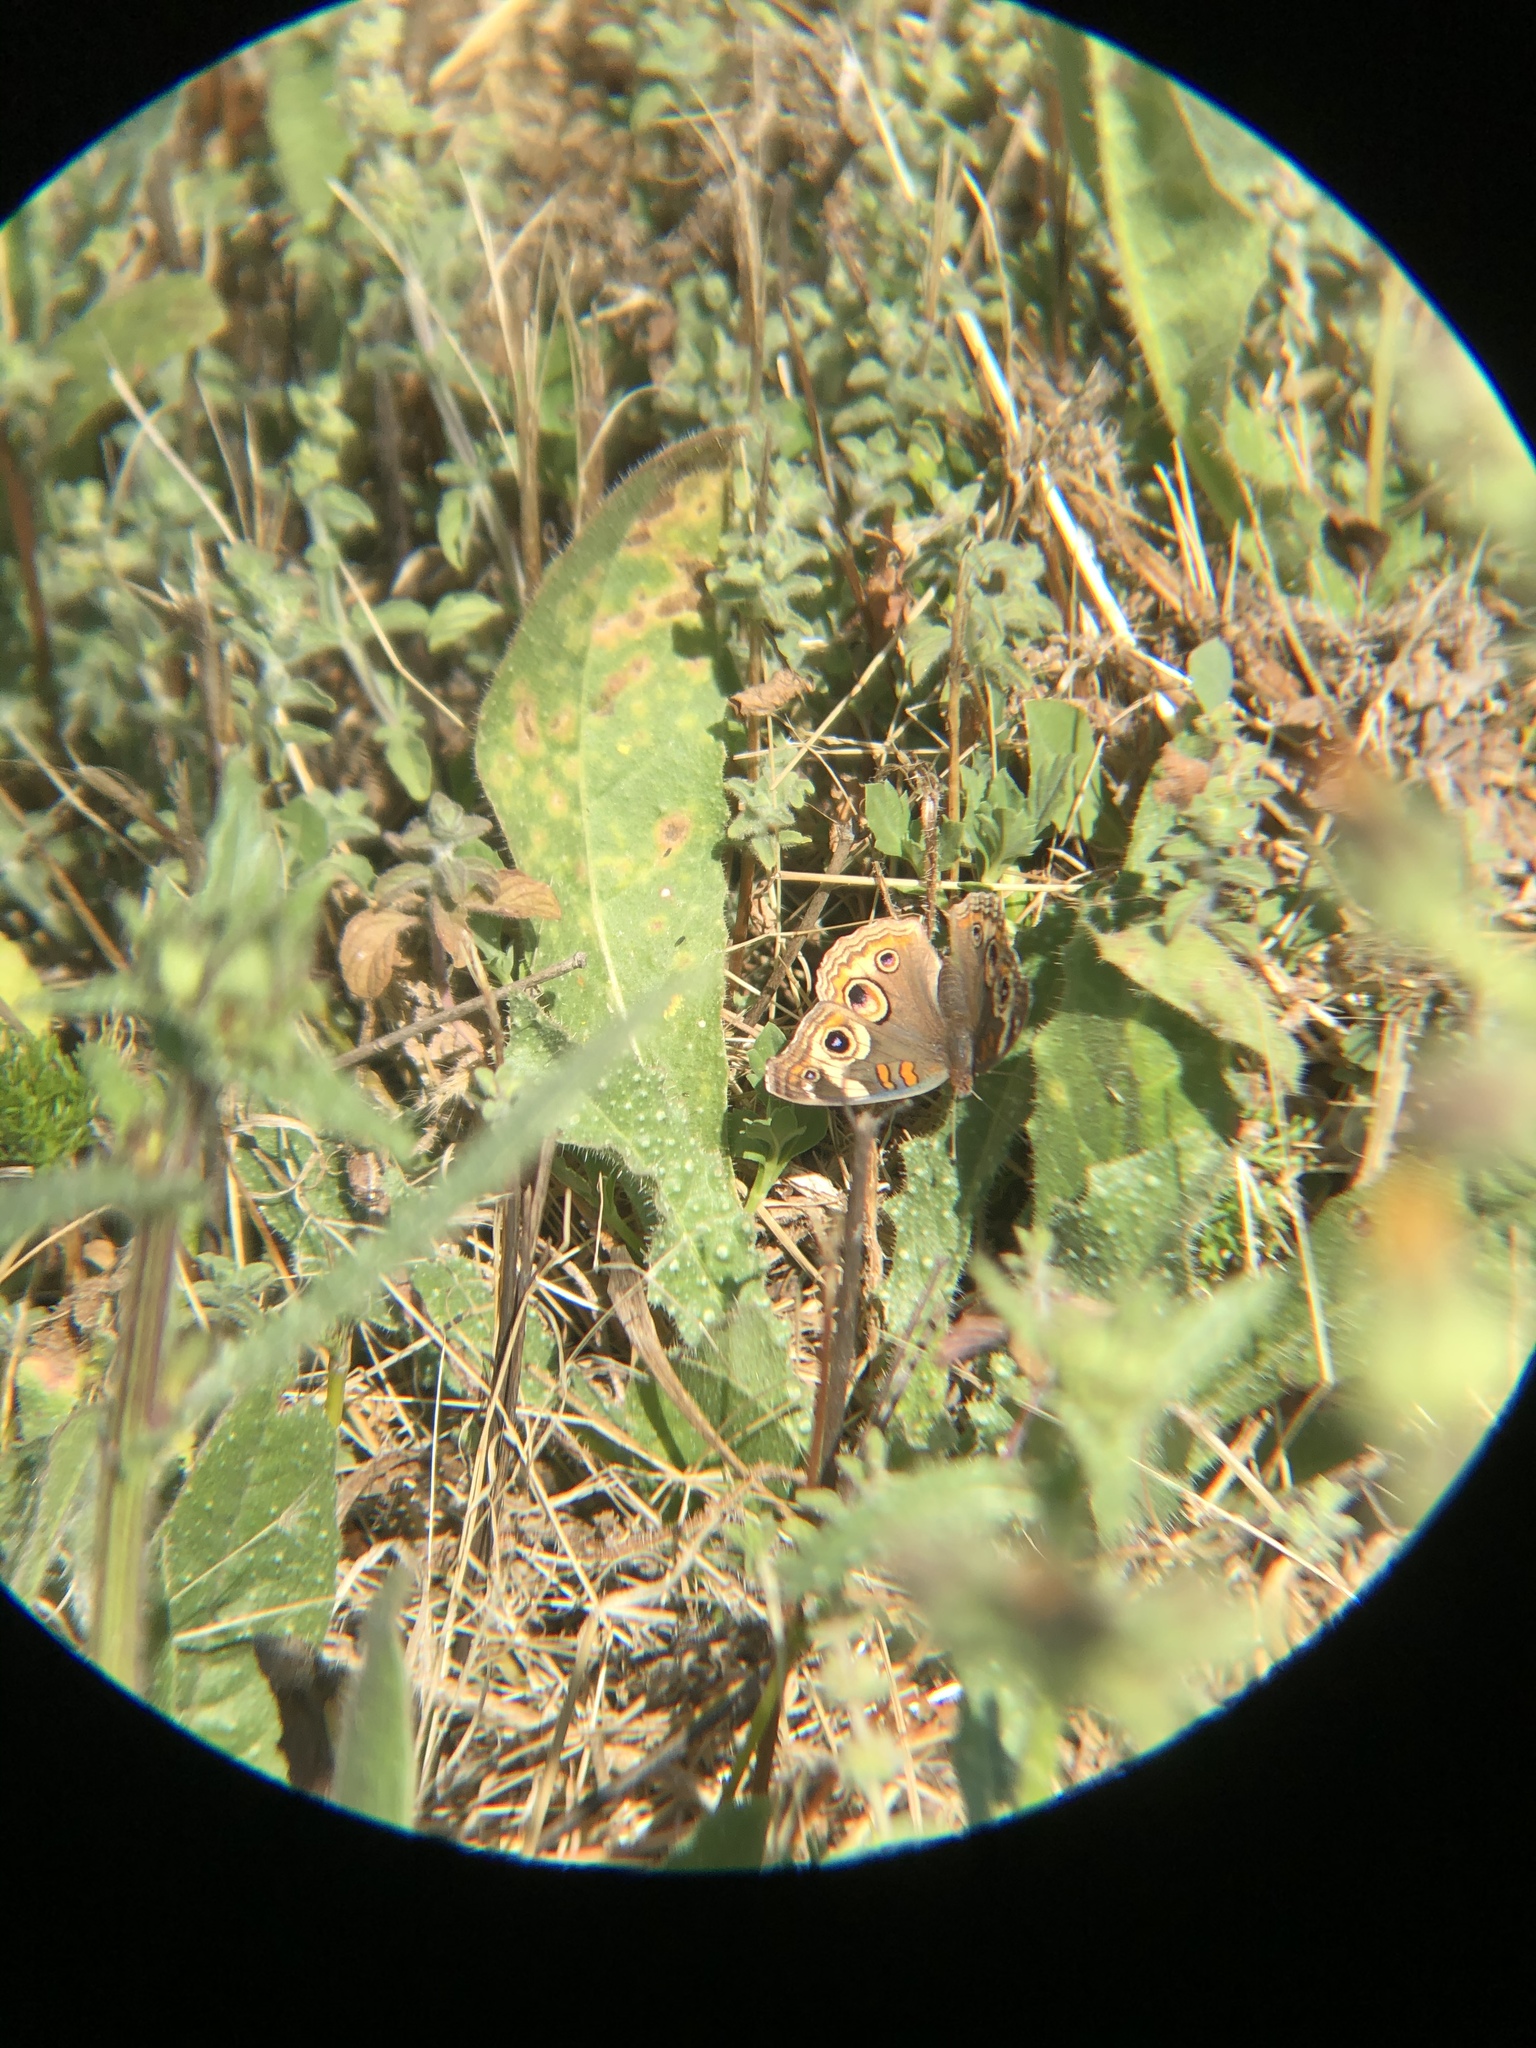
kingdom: Animalia
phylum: Arthropoda
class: Insecta
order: Lepidoptera
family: Nymphalidae
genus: Junonia
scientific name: Junonia grisea
